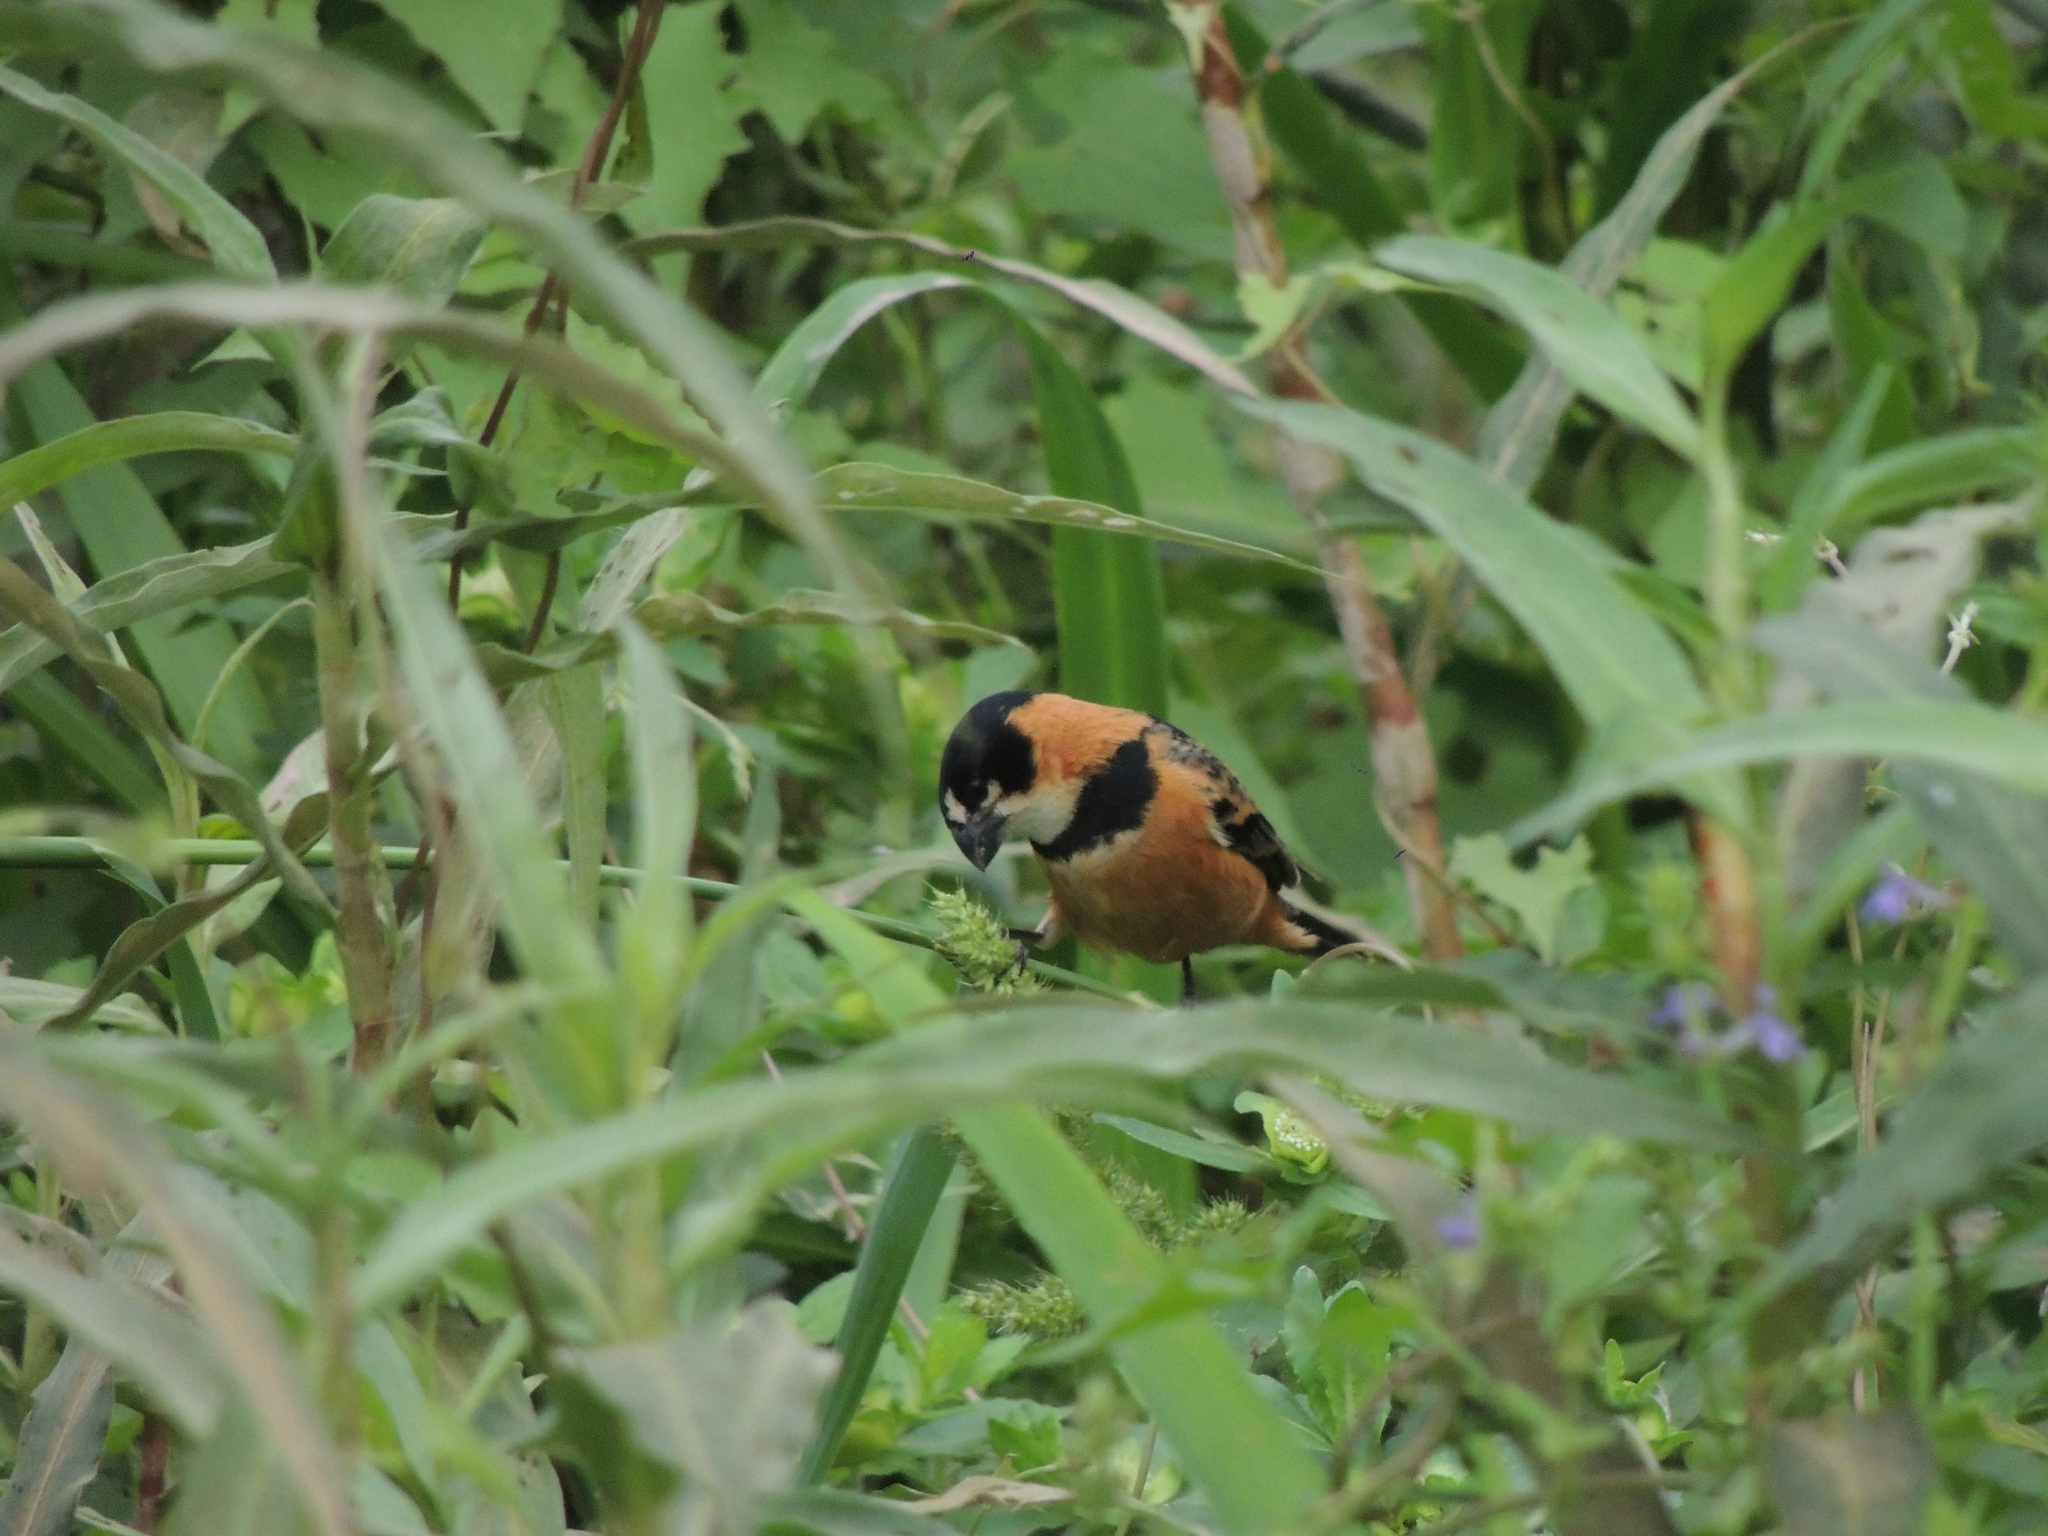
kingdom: Animalia
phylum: Chordata
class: Aves
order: Passeriformes
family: Thraupidae
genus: Sporophila
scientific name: Sporophila collaris
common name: Rusty-collared seedeater
